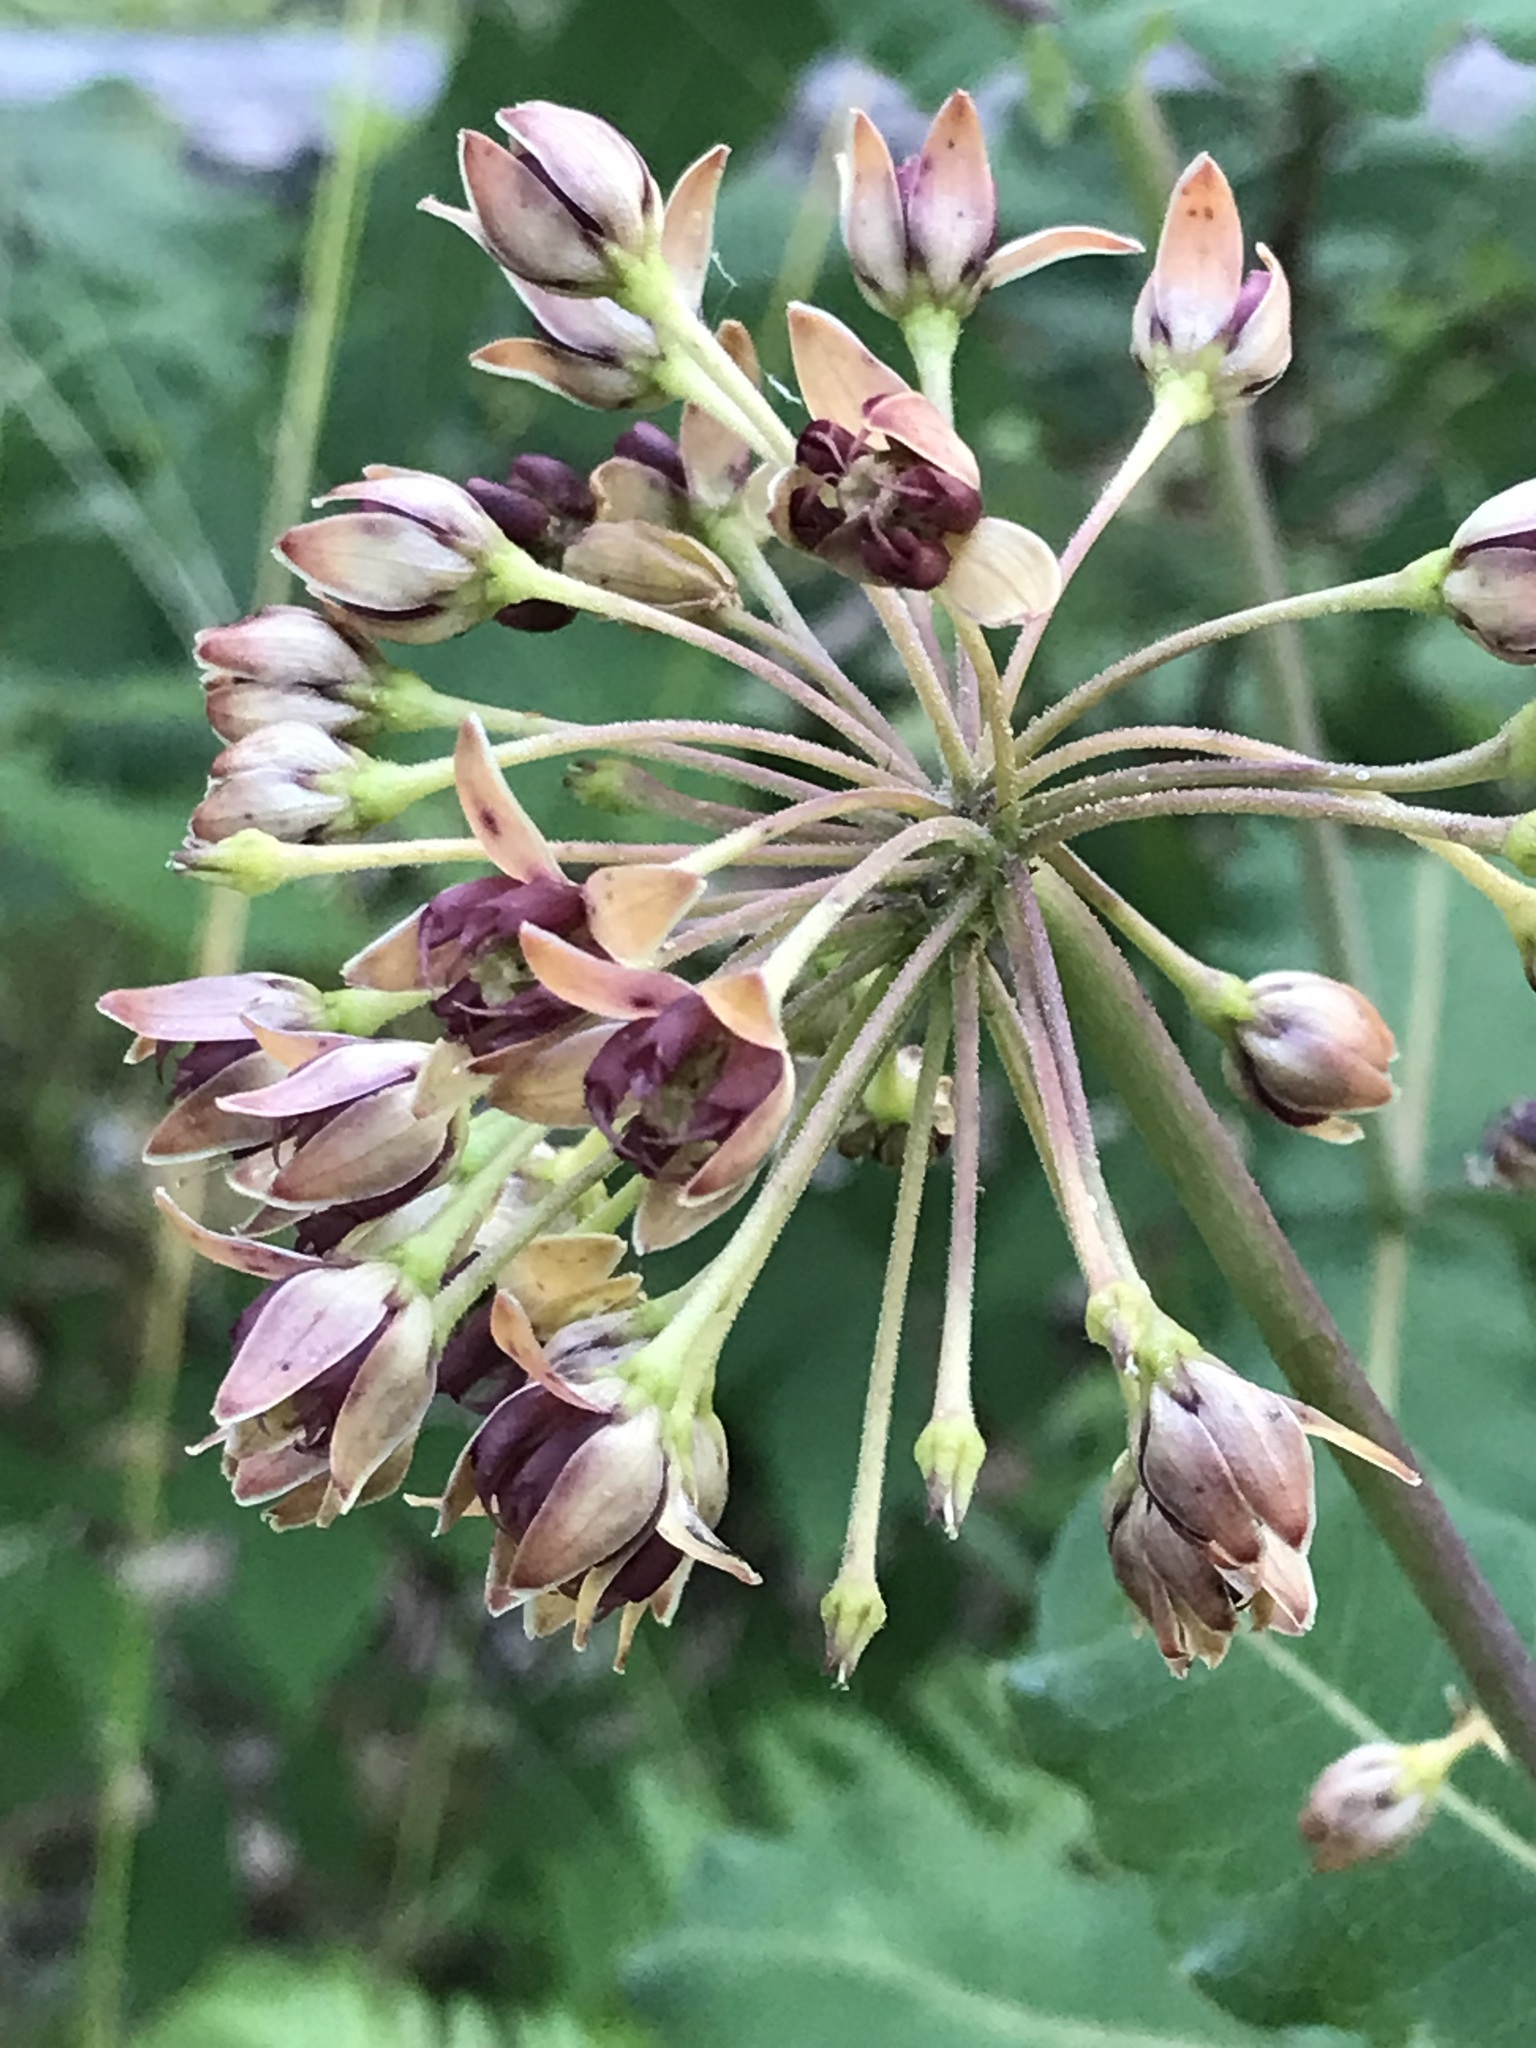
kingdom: Plantae
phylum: Tracheophyta
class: Magnoliopsida
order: Gentianales
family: Apocynaceae
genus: Asclepias
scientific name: Asclepias amplexicaulis
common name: Blunt-leaf milkweed
